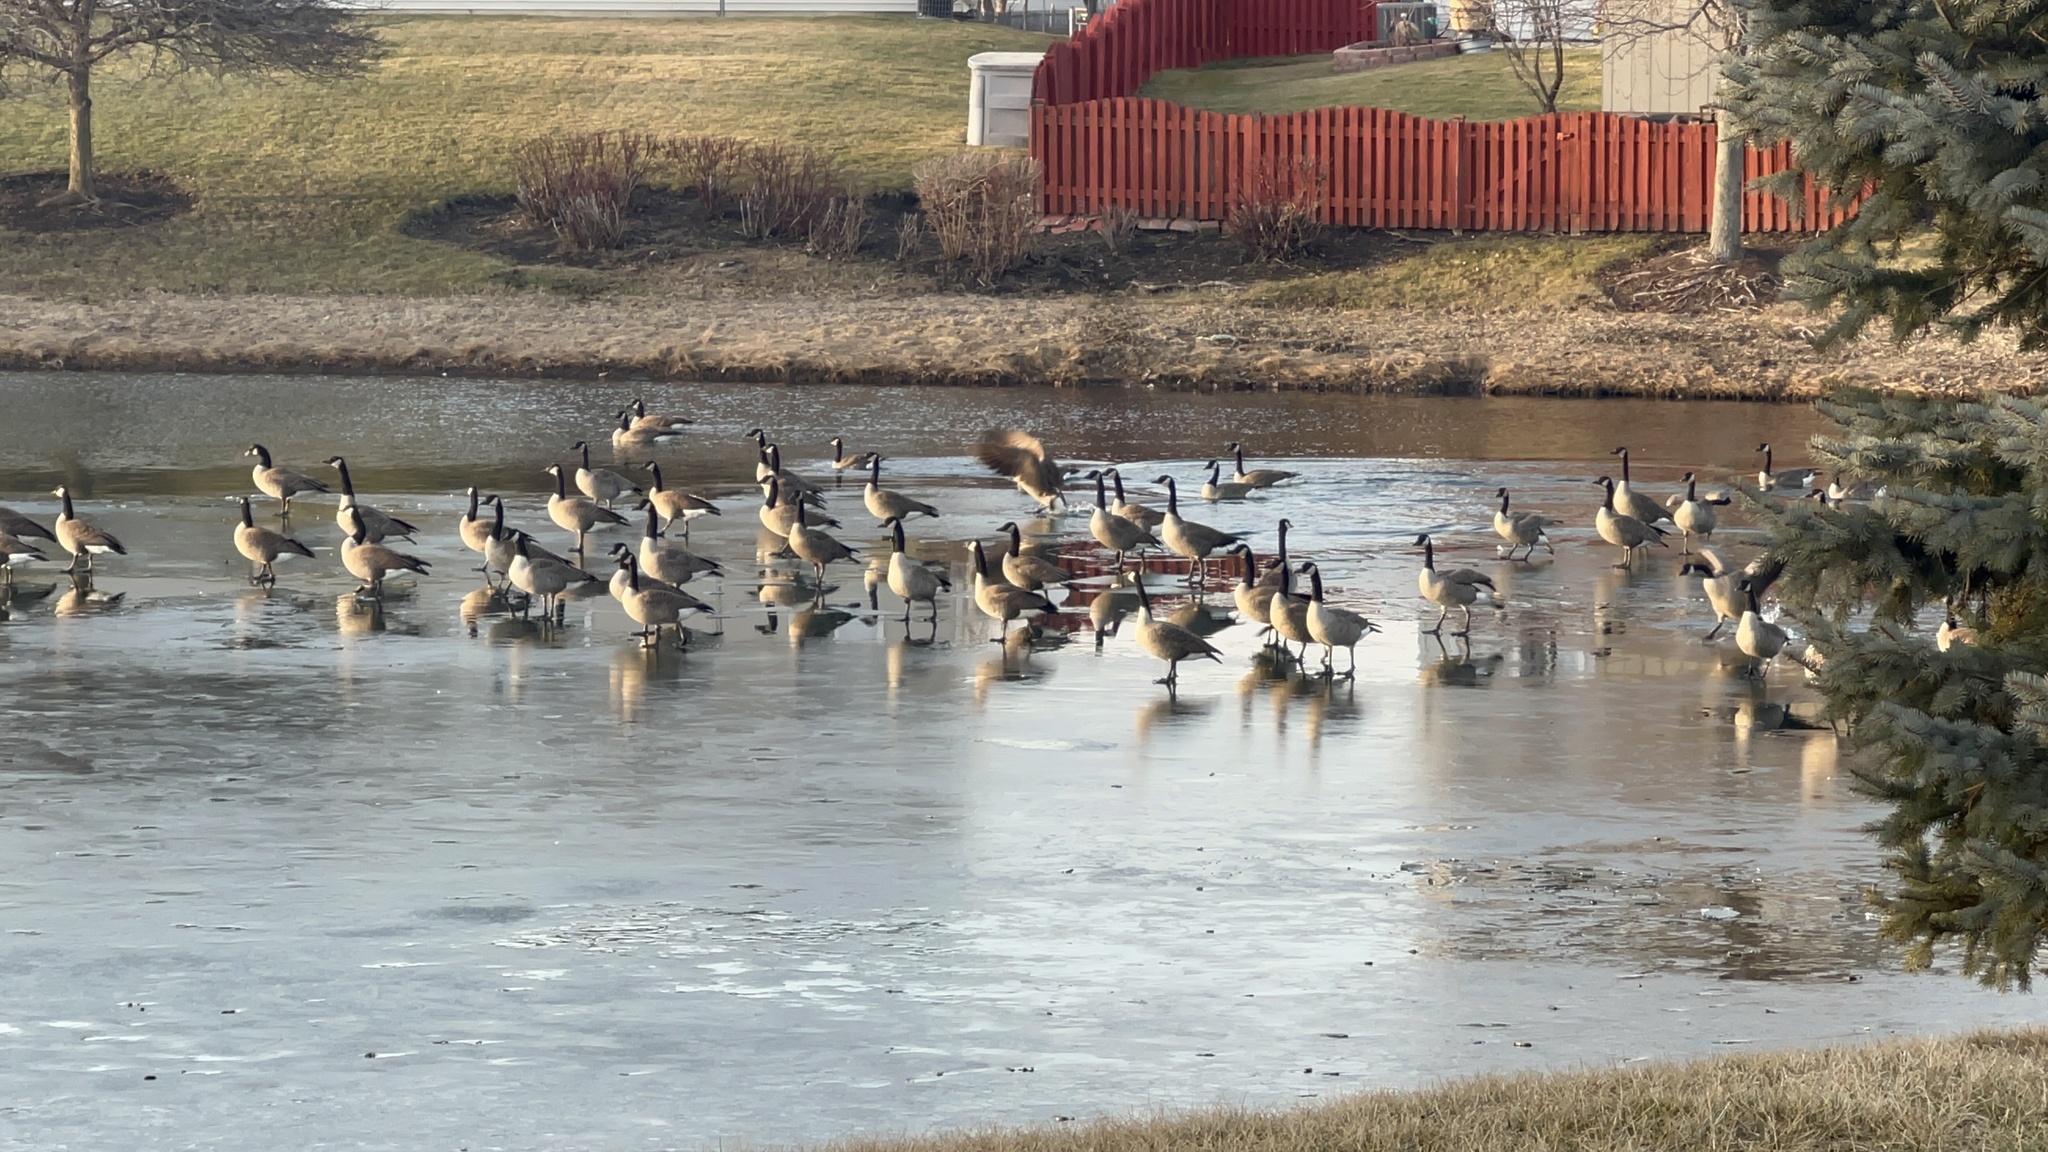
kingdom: Animalia
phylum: Chordata
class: Aves
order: Anseriformes
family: Anatidae
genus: Branta
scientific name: Branta canadensis
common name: Canada goose
